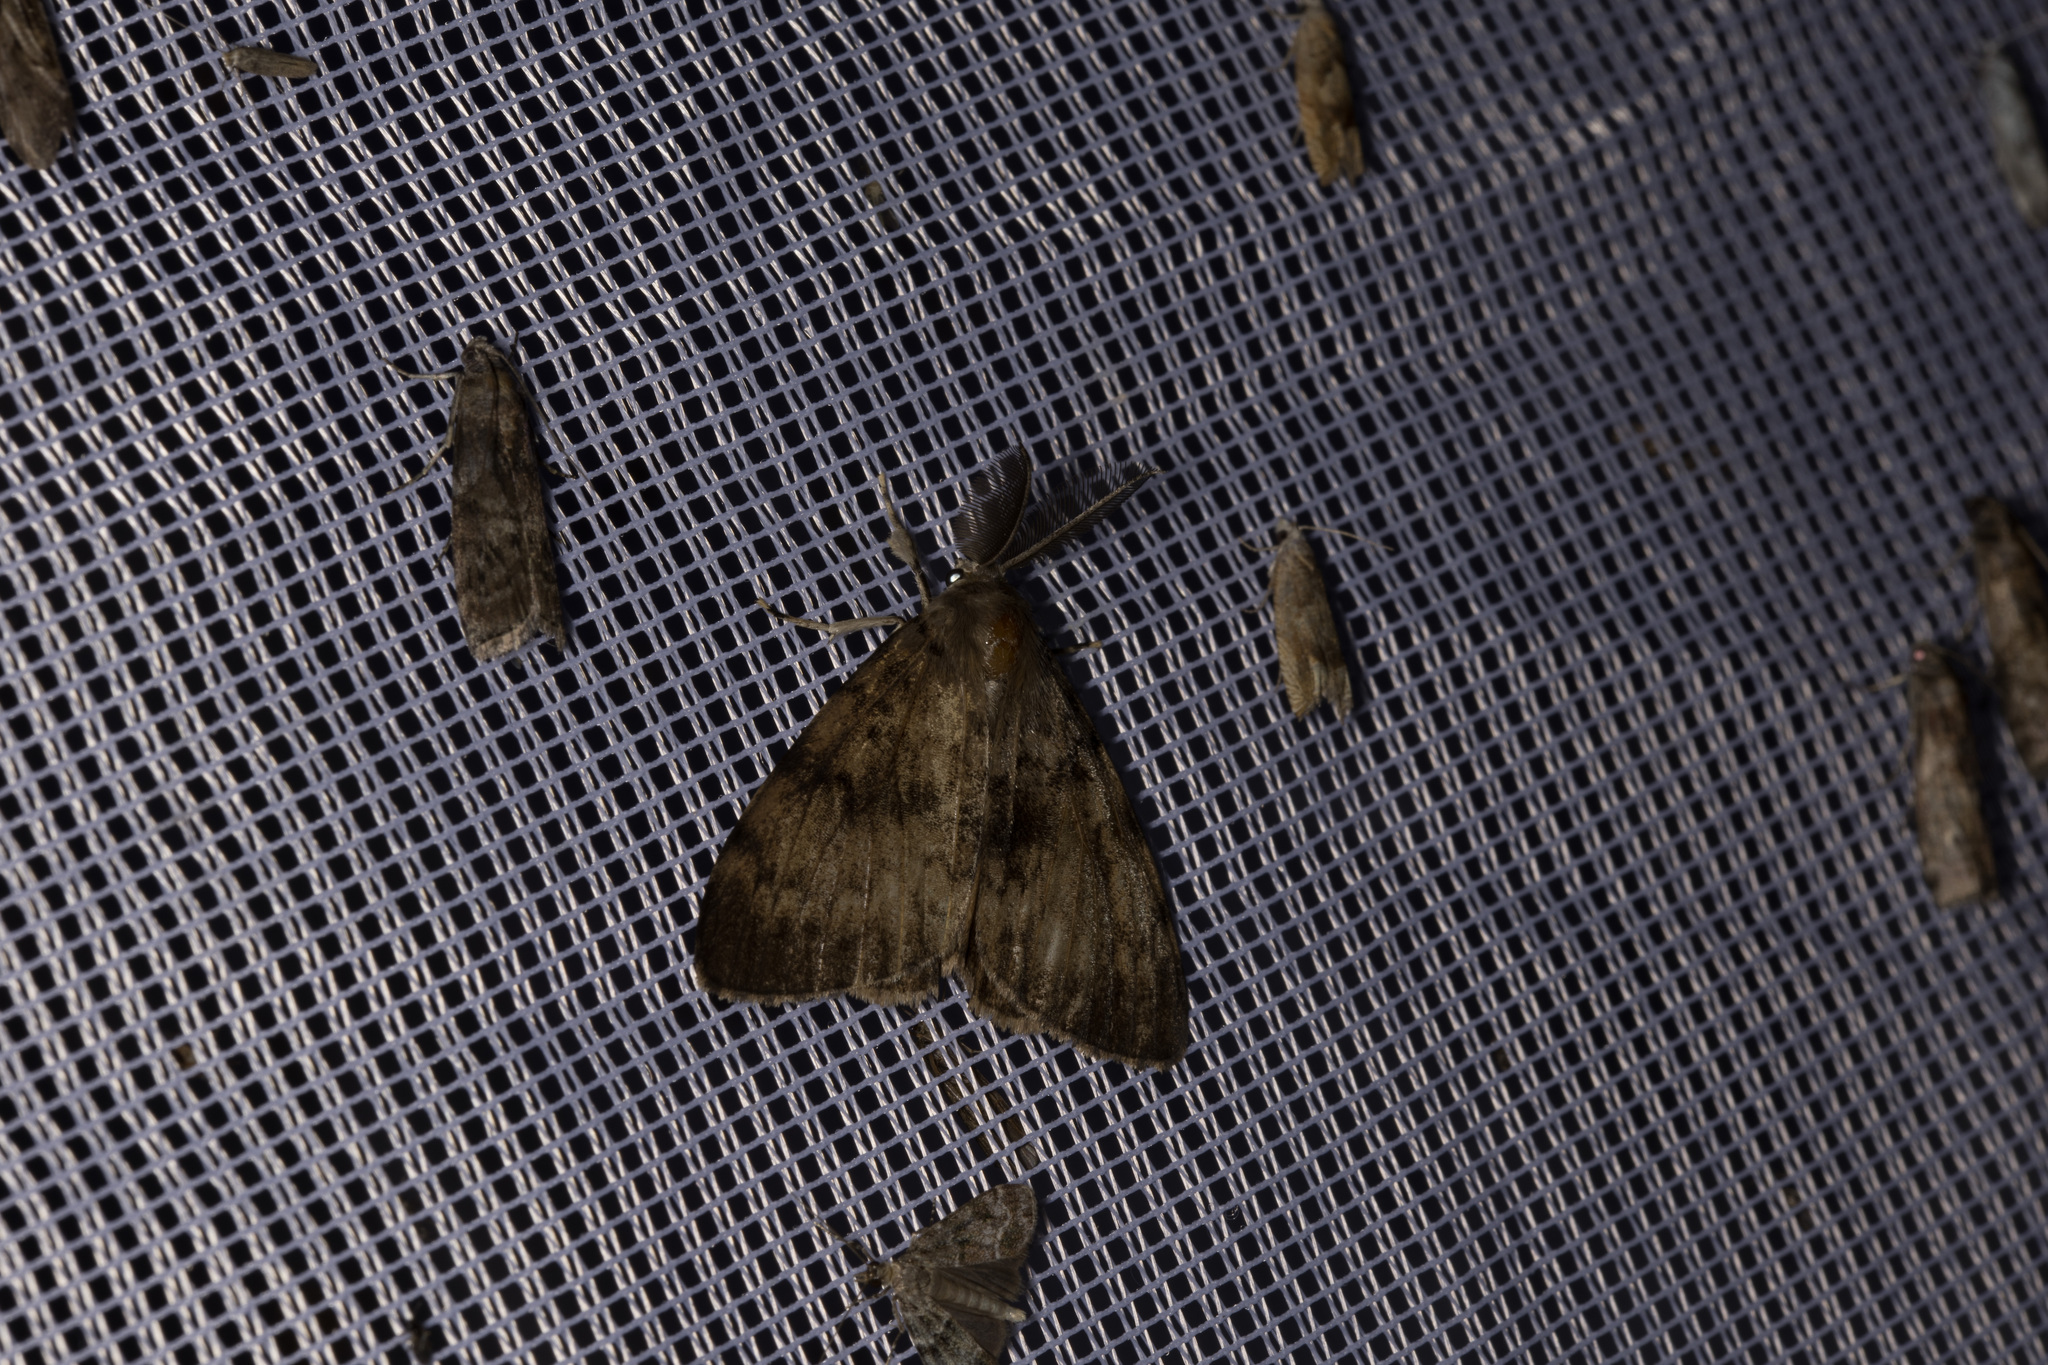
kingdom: Animalia
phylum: Arthropoda
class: Insecta
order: Lepidoptera
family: Erebidae
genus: Lymantria
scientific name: Lymantria dispar
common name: Gypsy moth
